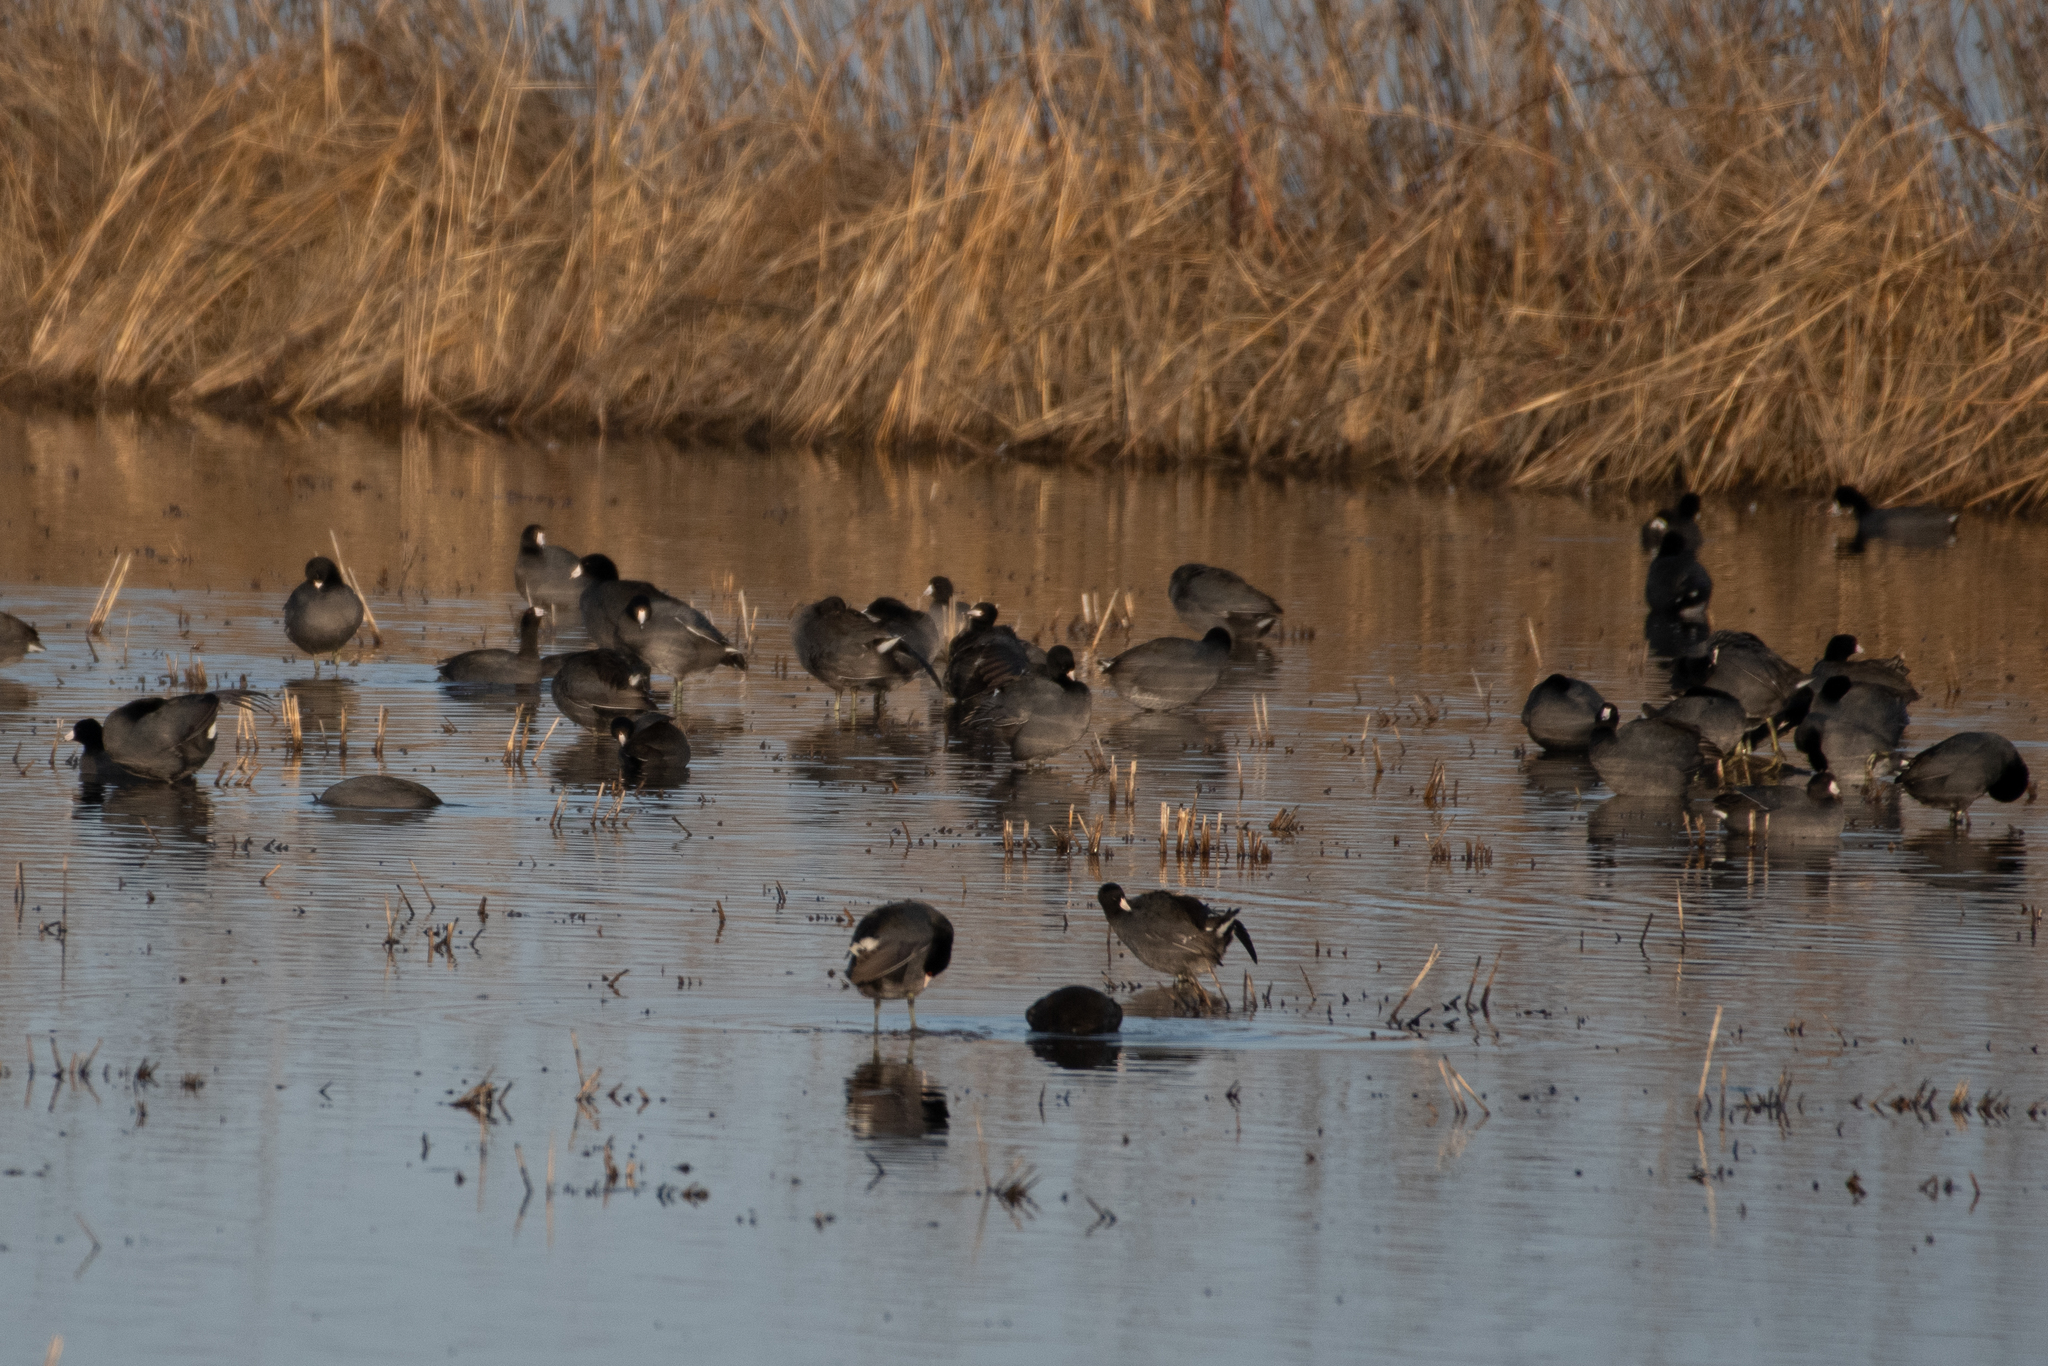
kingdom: Animalia
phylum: Chordata
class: Aves
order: Gruiformes
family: Rallidae
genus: Fulica
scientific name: Fulica americana
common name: American coot
